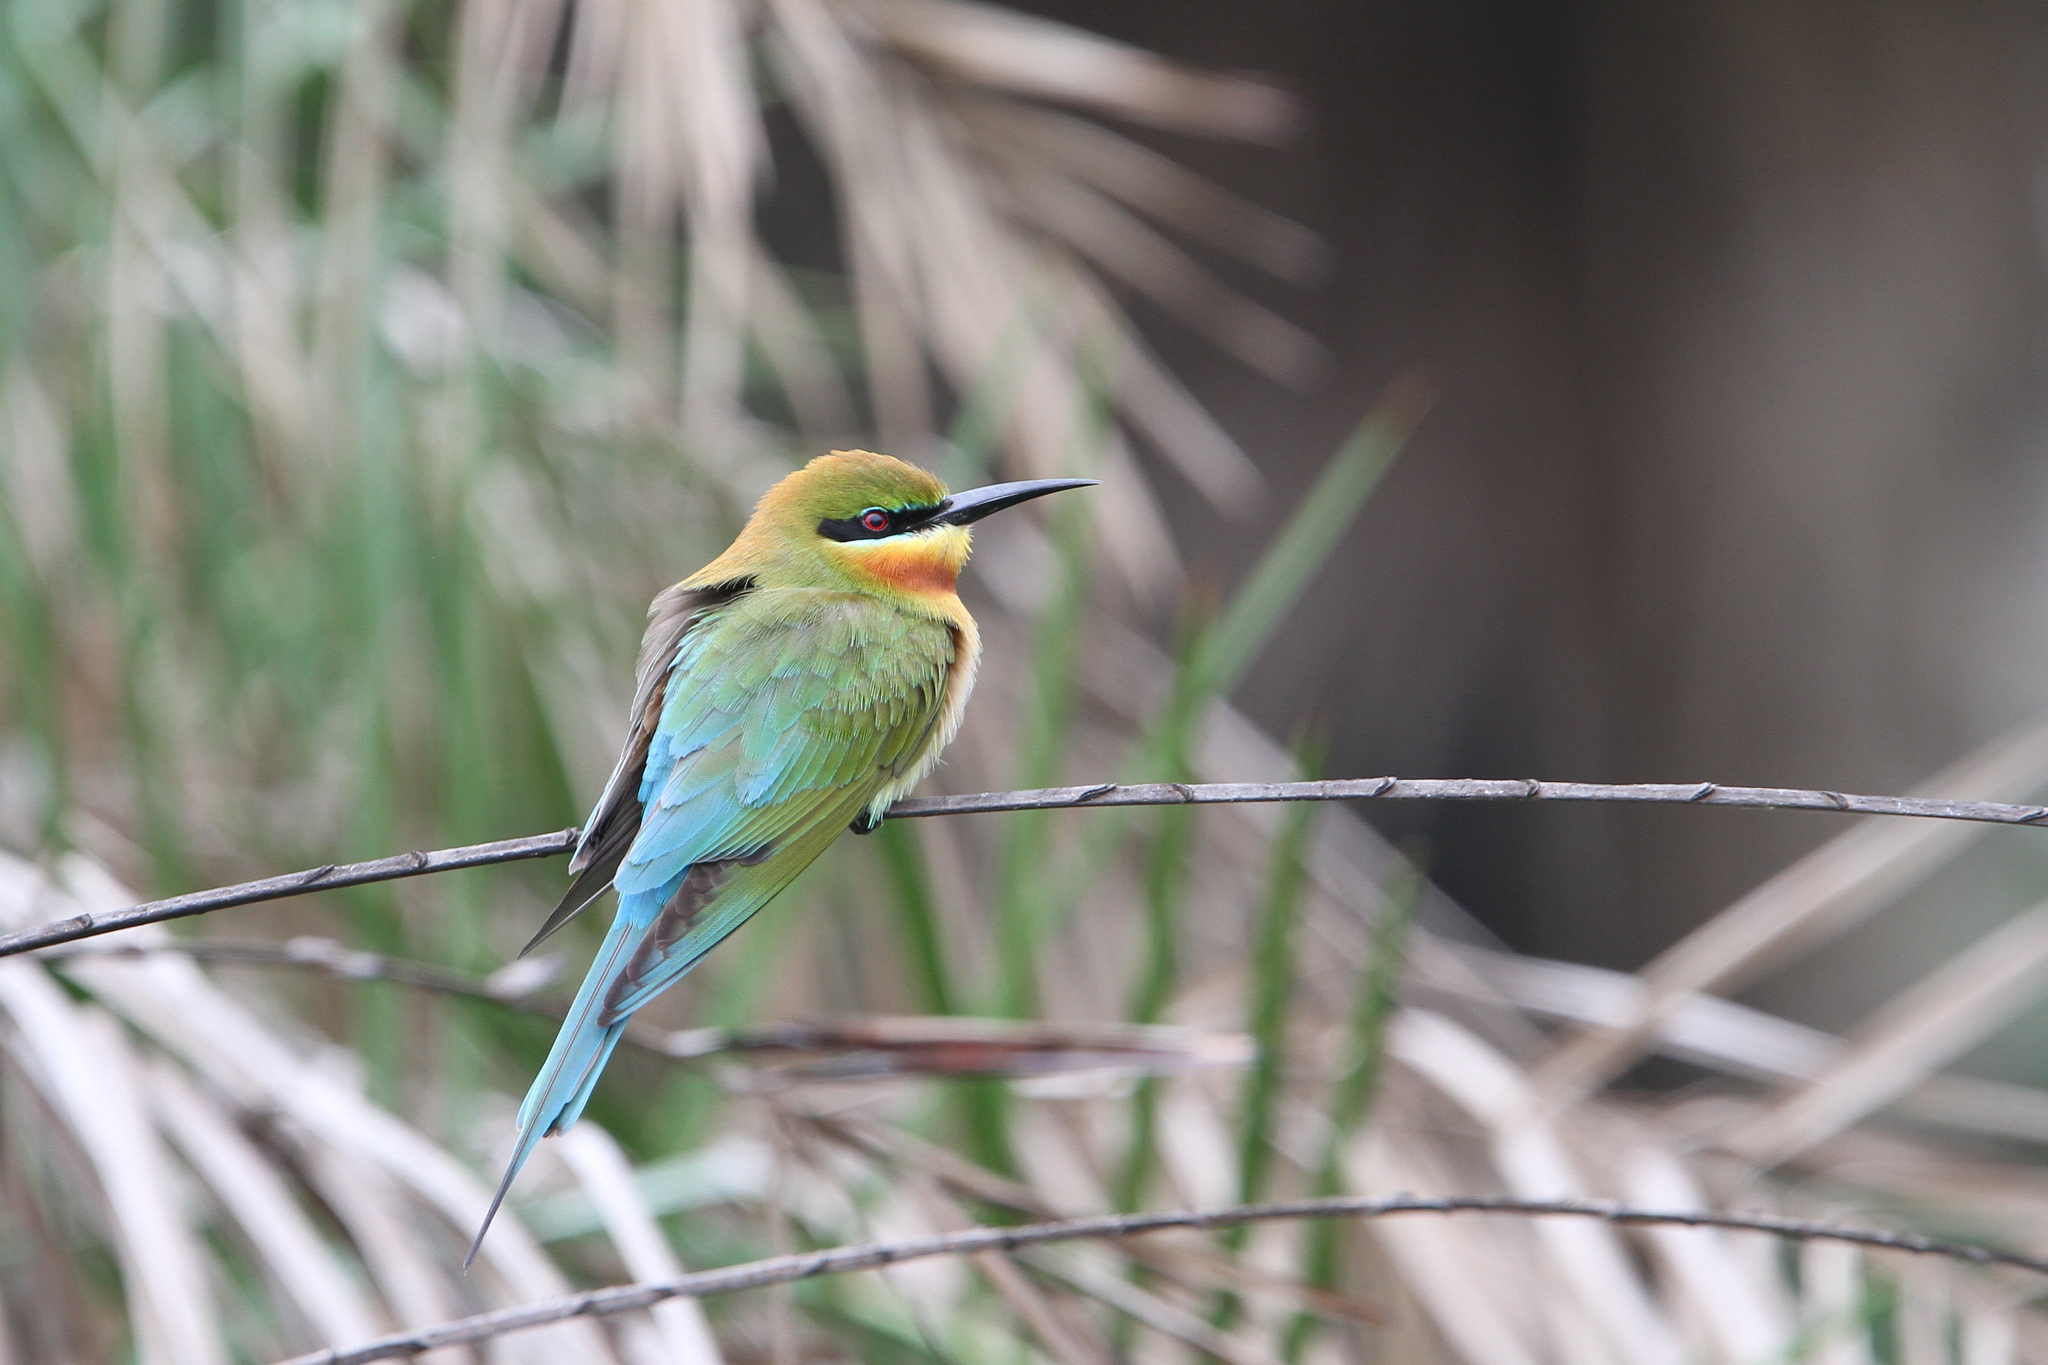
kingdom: Animalia
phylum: Chordata
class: Aves
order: Coraciiformes
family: Meropidae
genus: Merops
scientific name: Merops philippinus
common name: Blue-tailed bee-eater
